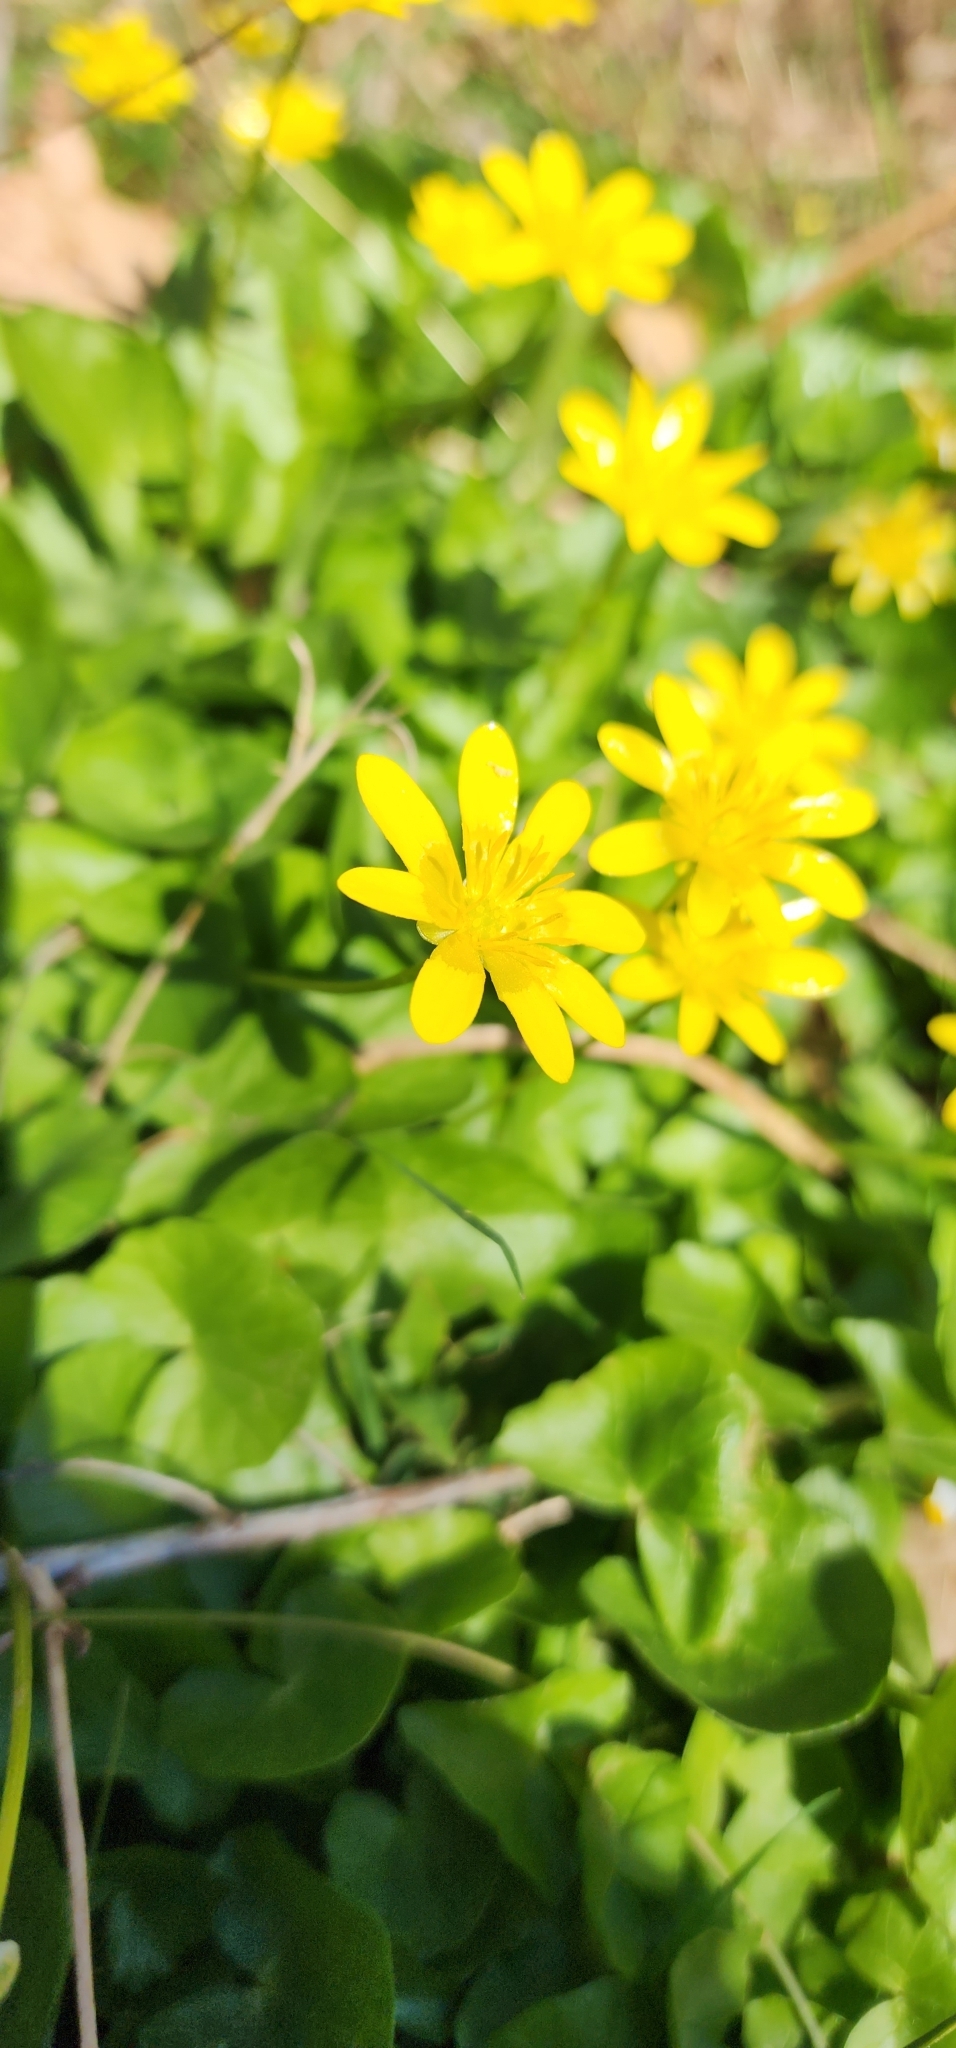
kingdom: Plantae
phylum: Tracheophyta
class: Magnoliopsida
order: Ranunculales
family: Ranunculaceae
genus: Ficaria
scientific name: Ficaria verna
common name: Lesser celandine
